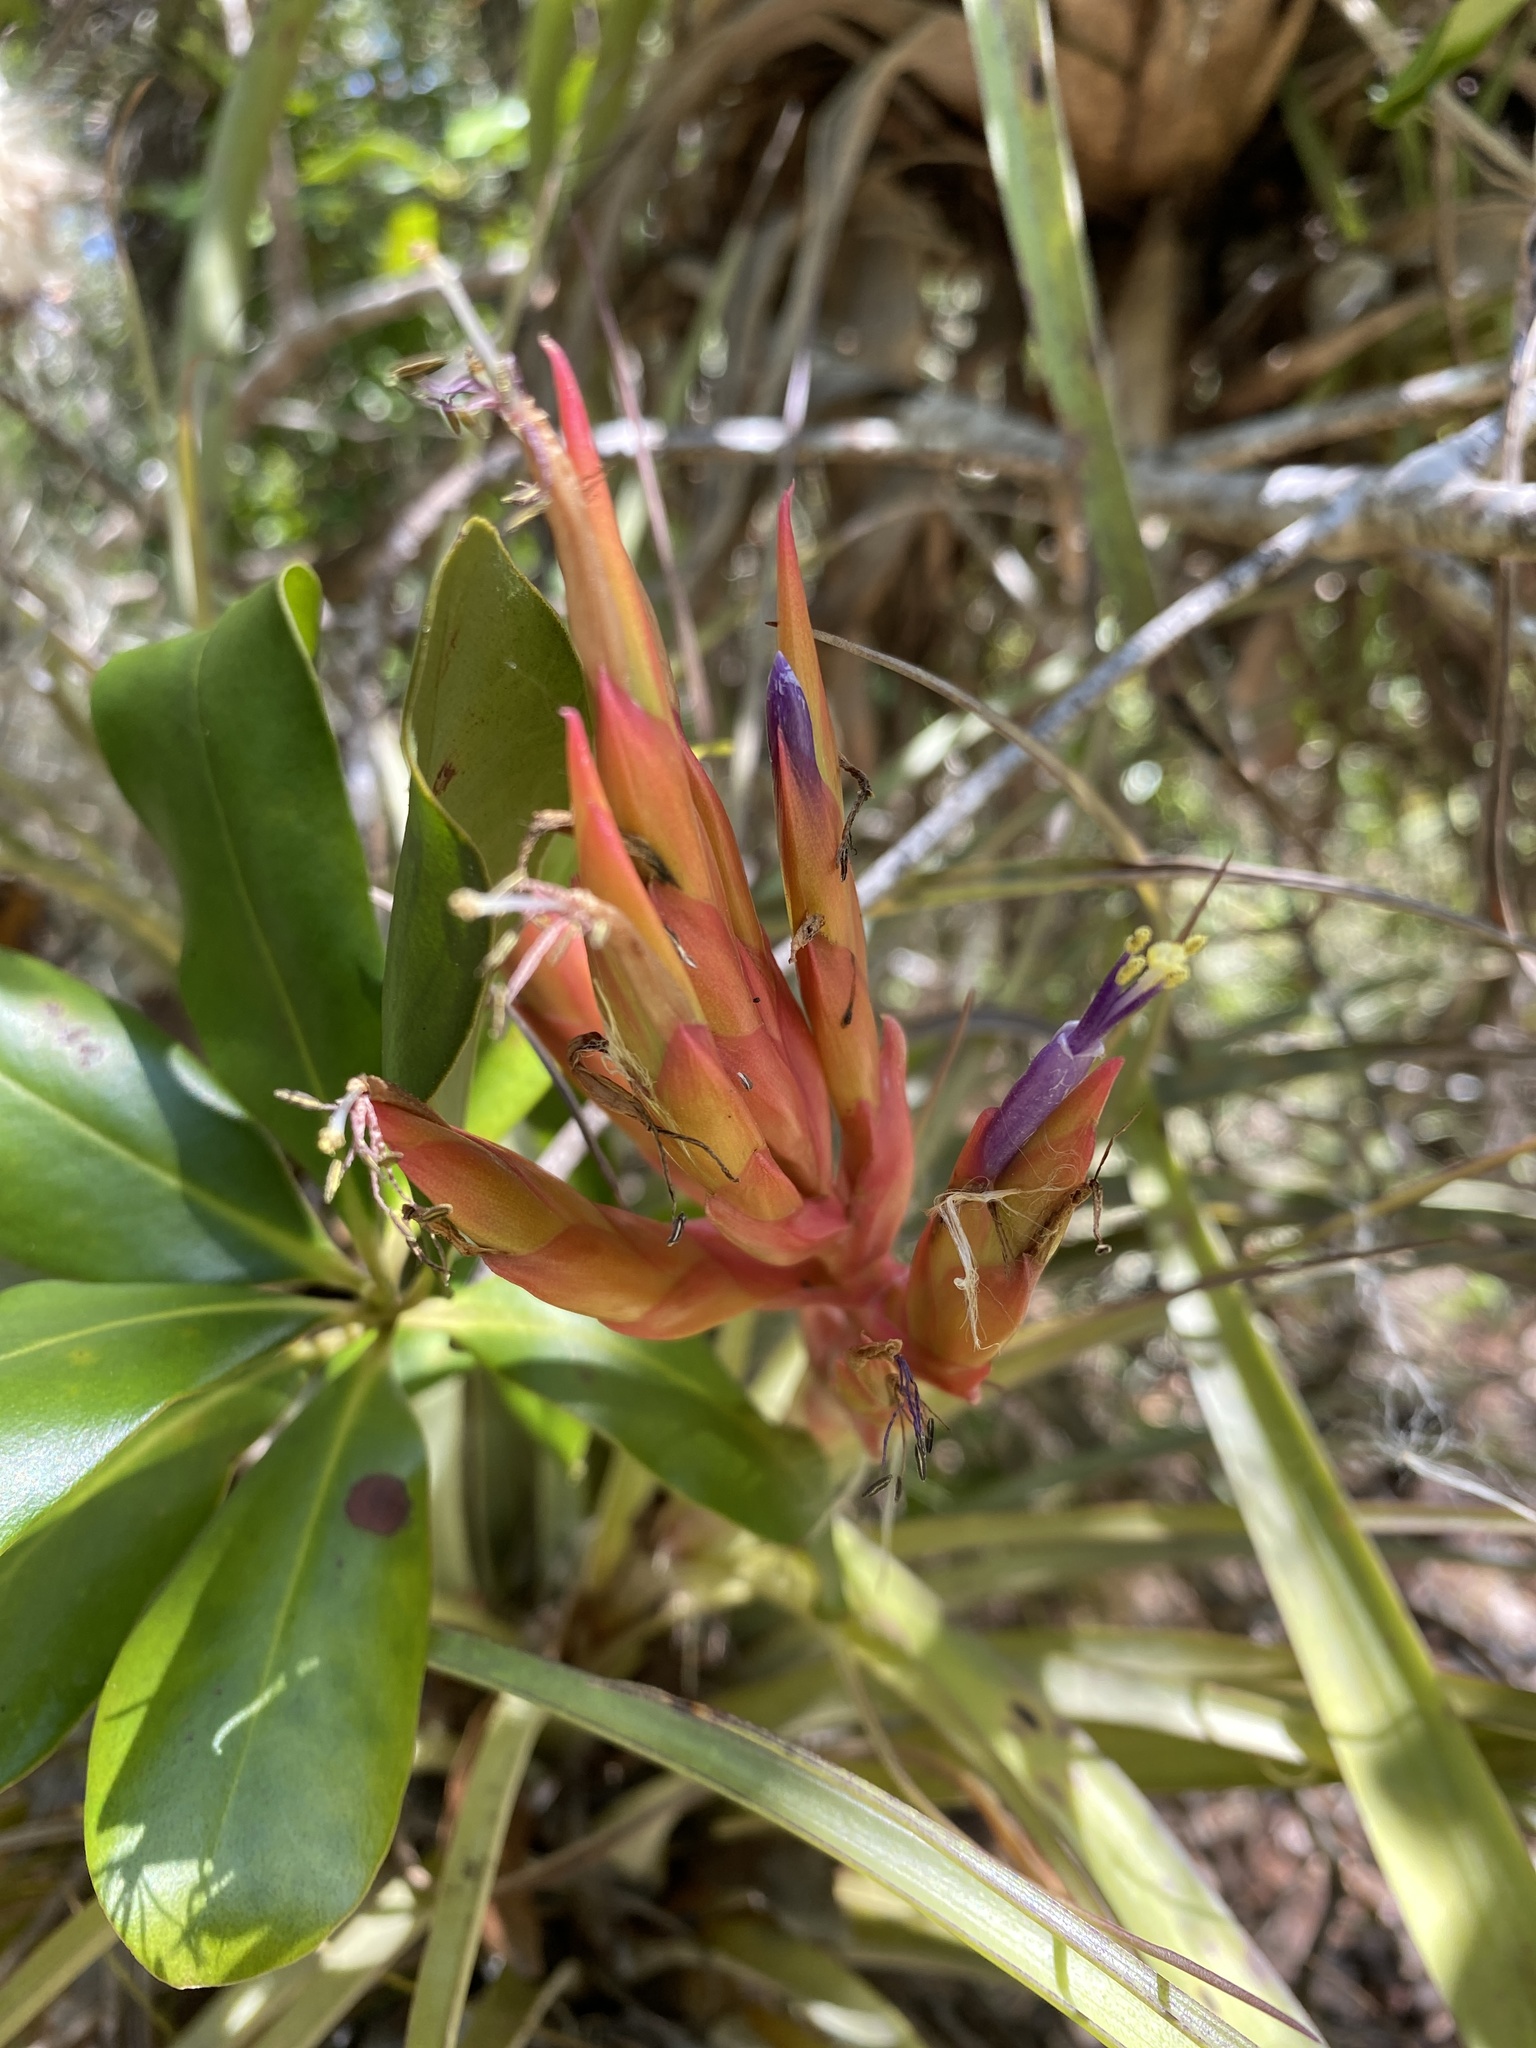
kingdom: Plantae
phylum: Tracheophyta
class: Liliopsida
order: Poales
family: Bromeliaceae
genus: Tillandsia
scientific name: Tillandsia fasciculata
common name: Giant airplant
